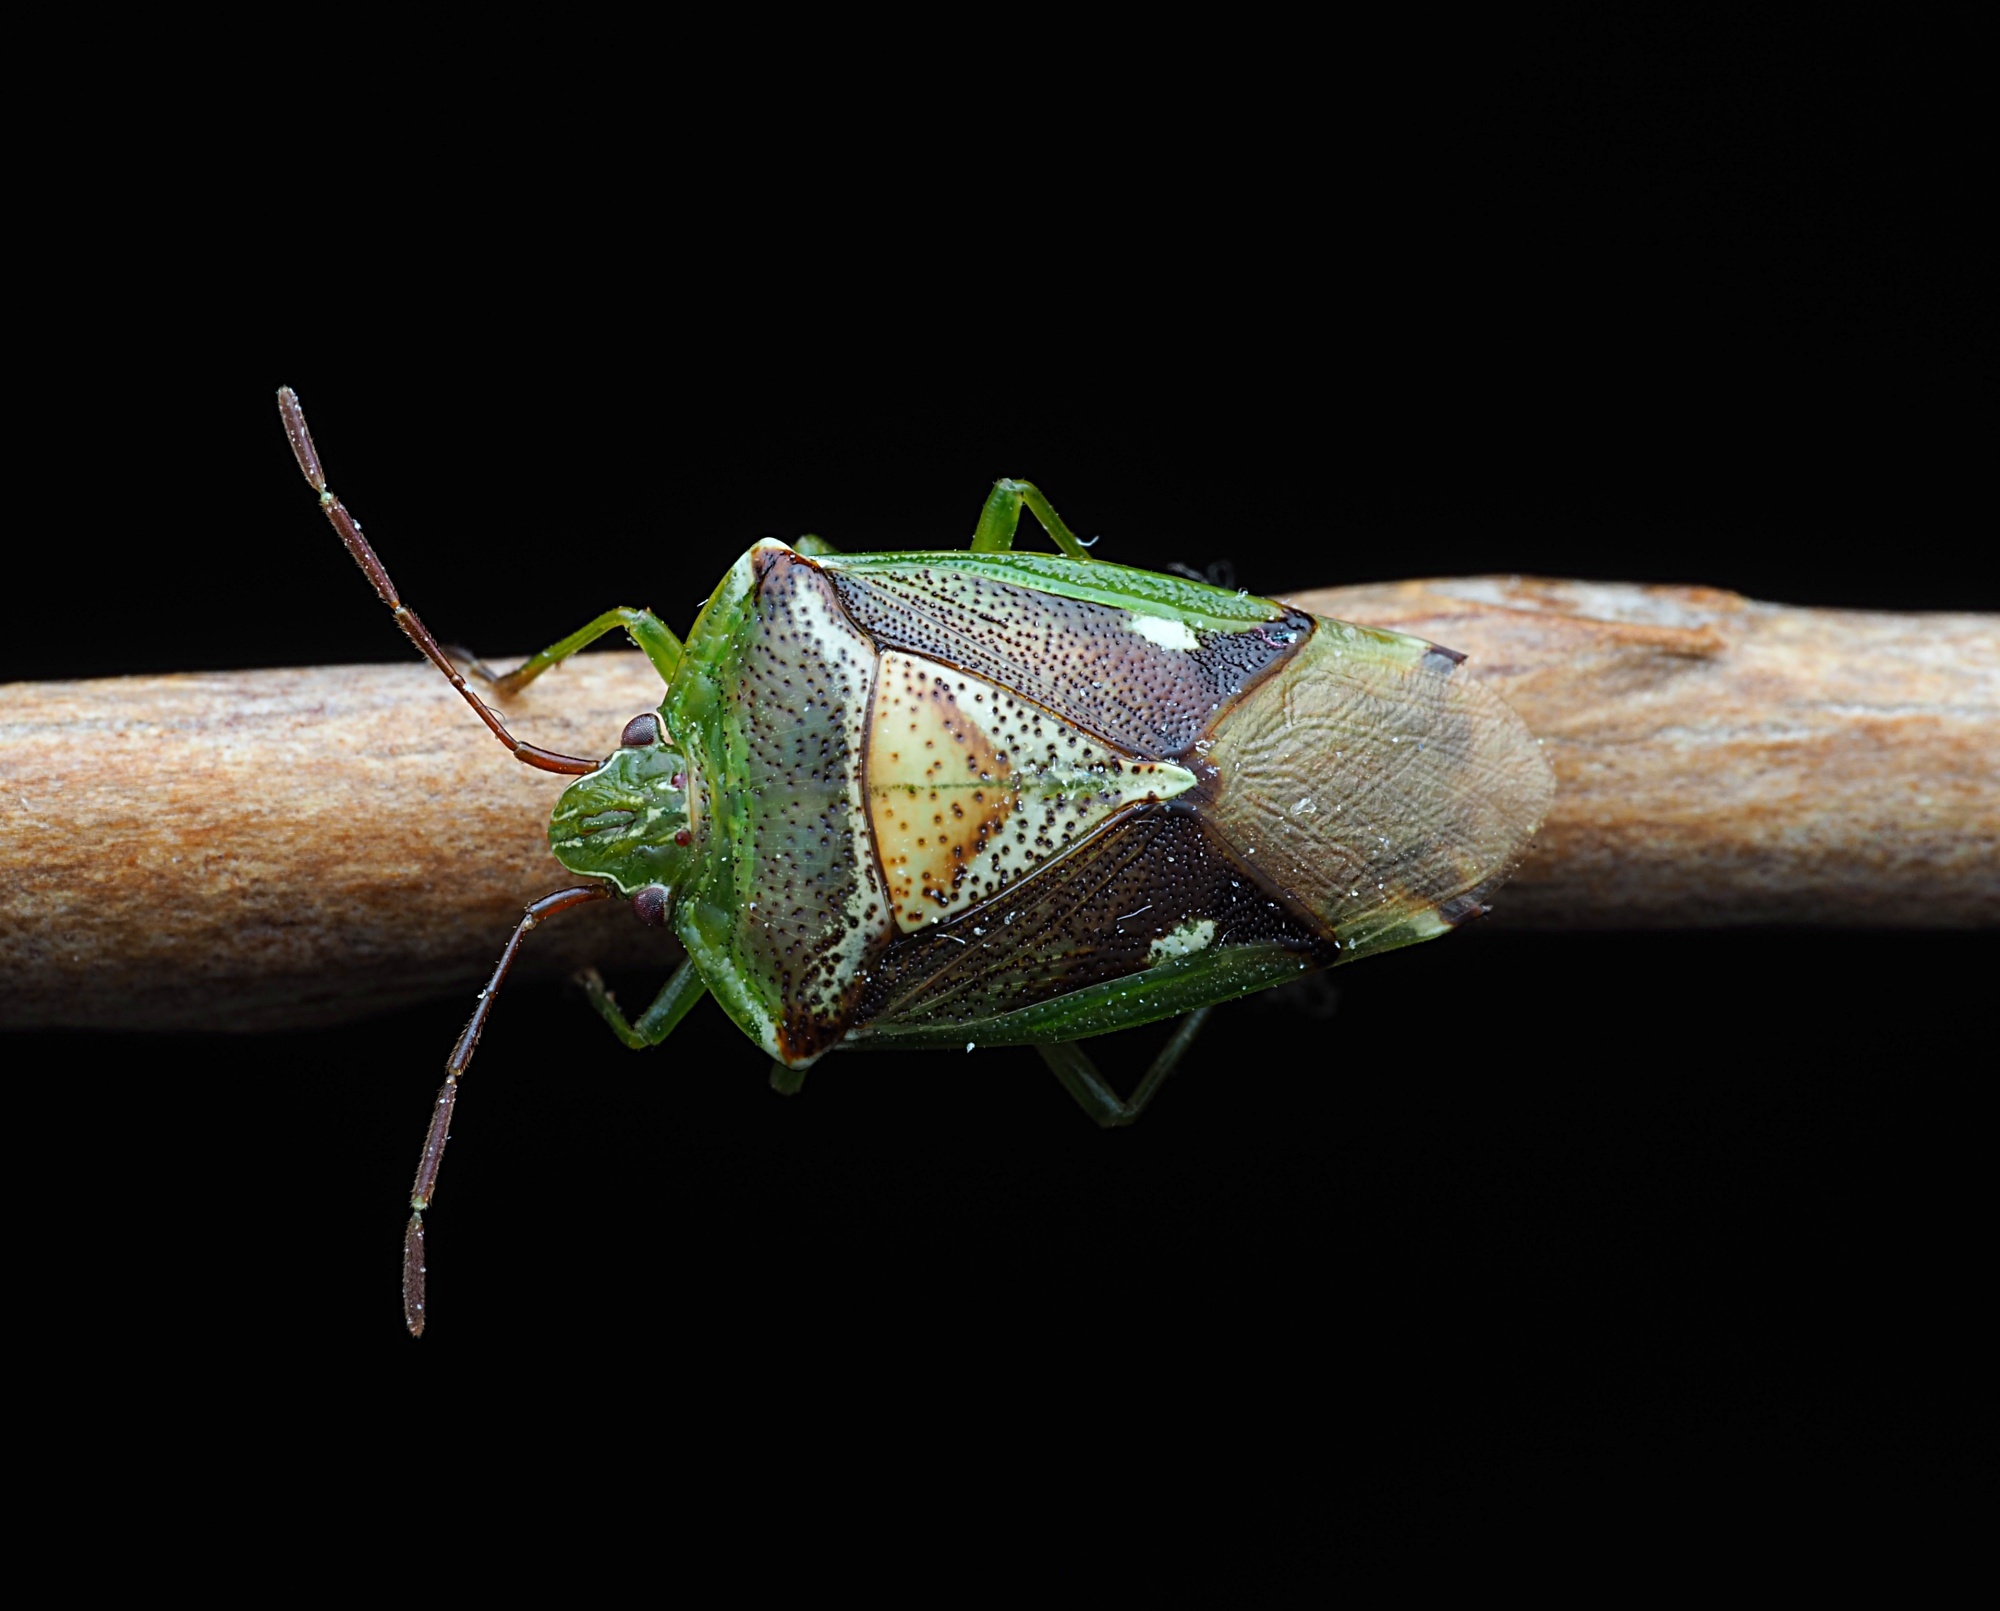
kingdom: Animalia
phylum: Arthropoda
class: Insecta
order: Hemiptera
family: Acanthosomatidae
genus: Oncacontias
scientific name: Oncacontias vittatus
